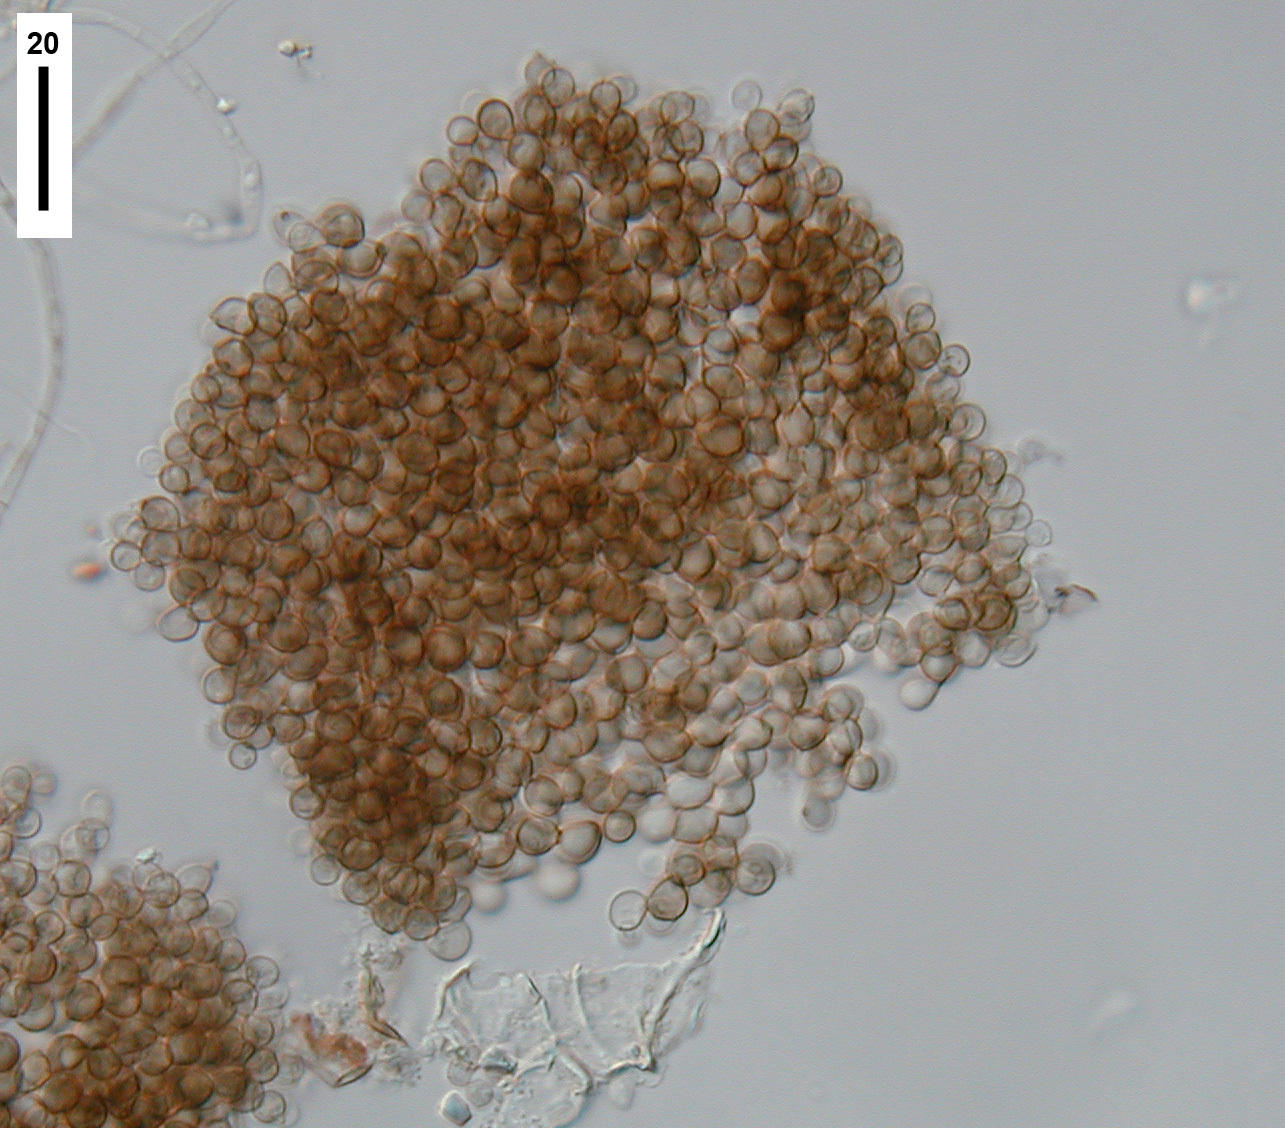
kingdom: Fungi
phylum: Ascomycota
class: Leotiomycetes
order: Helotiales
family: Hyaloscyphaceae
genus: Hyaloscypha
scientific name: Hyaloscypha leucostigma
